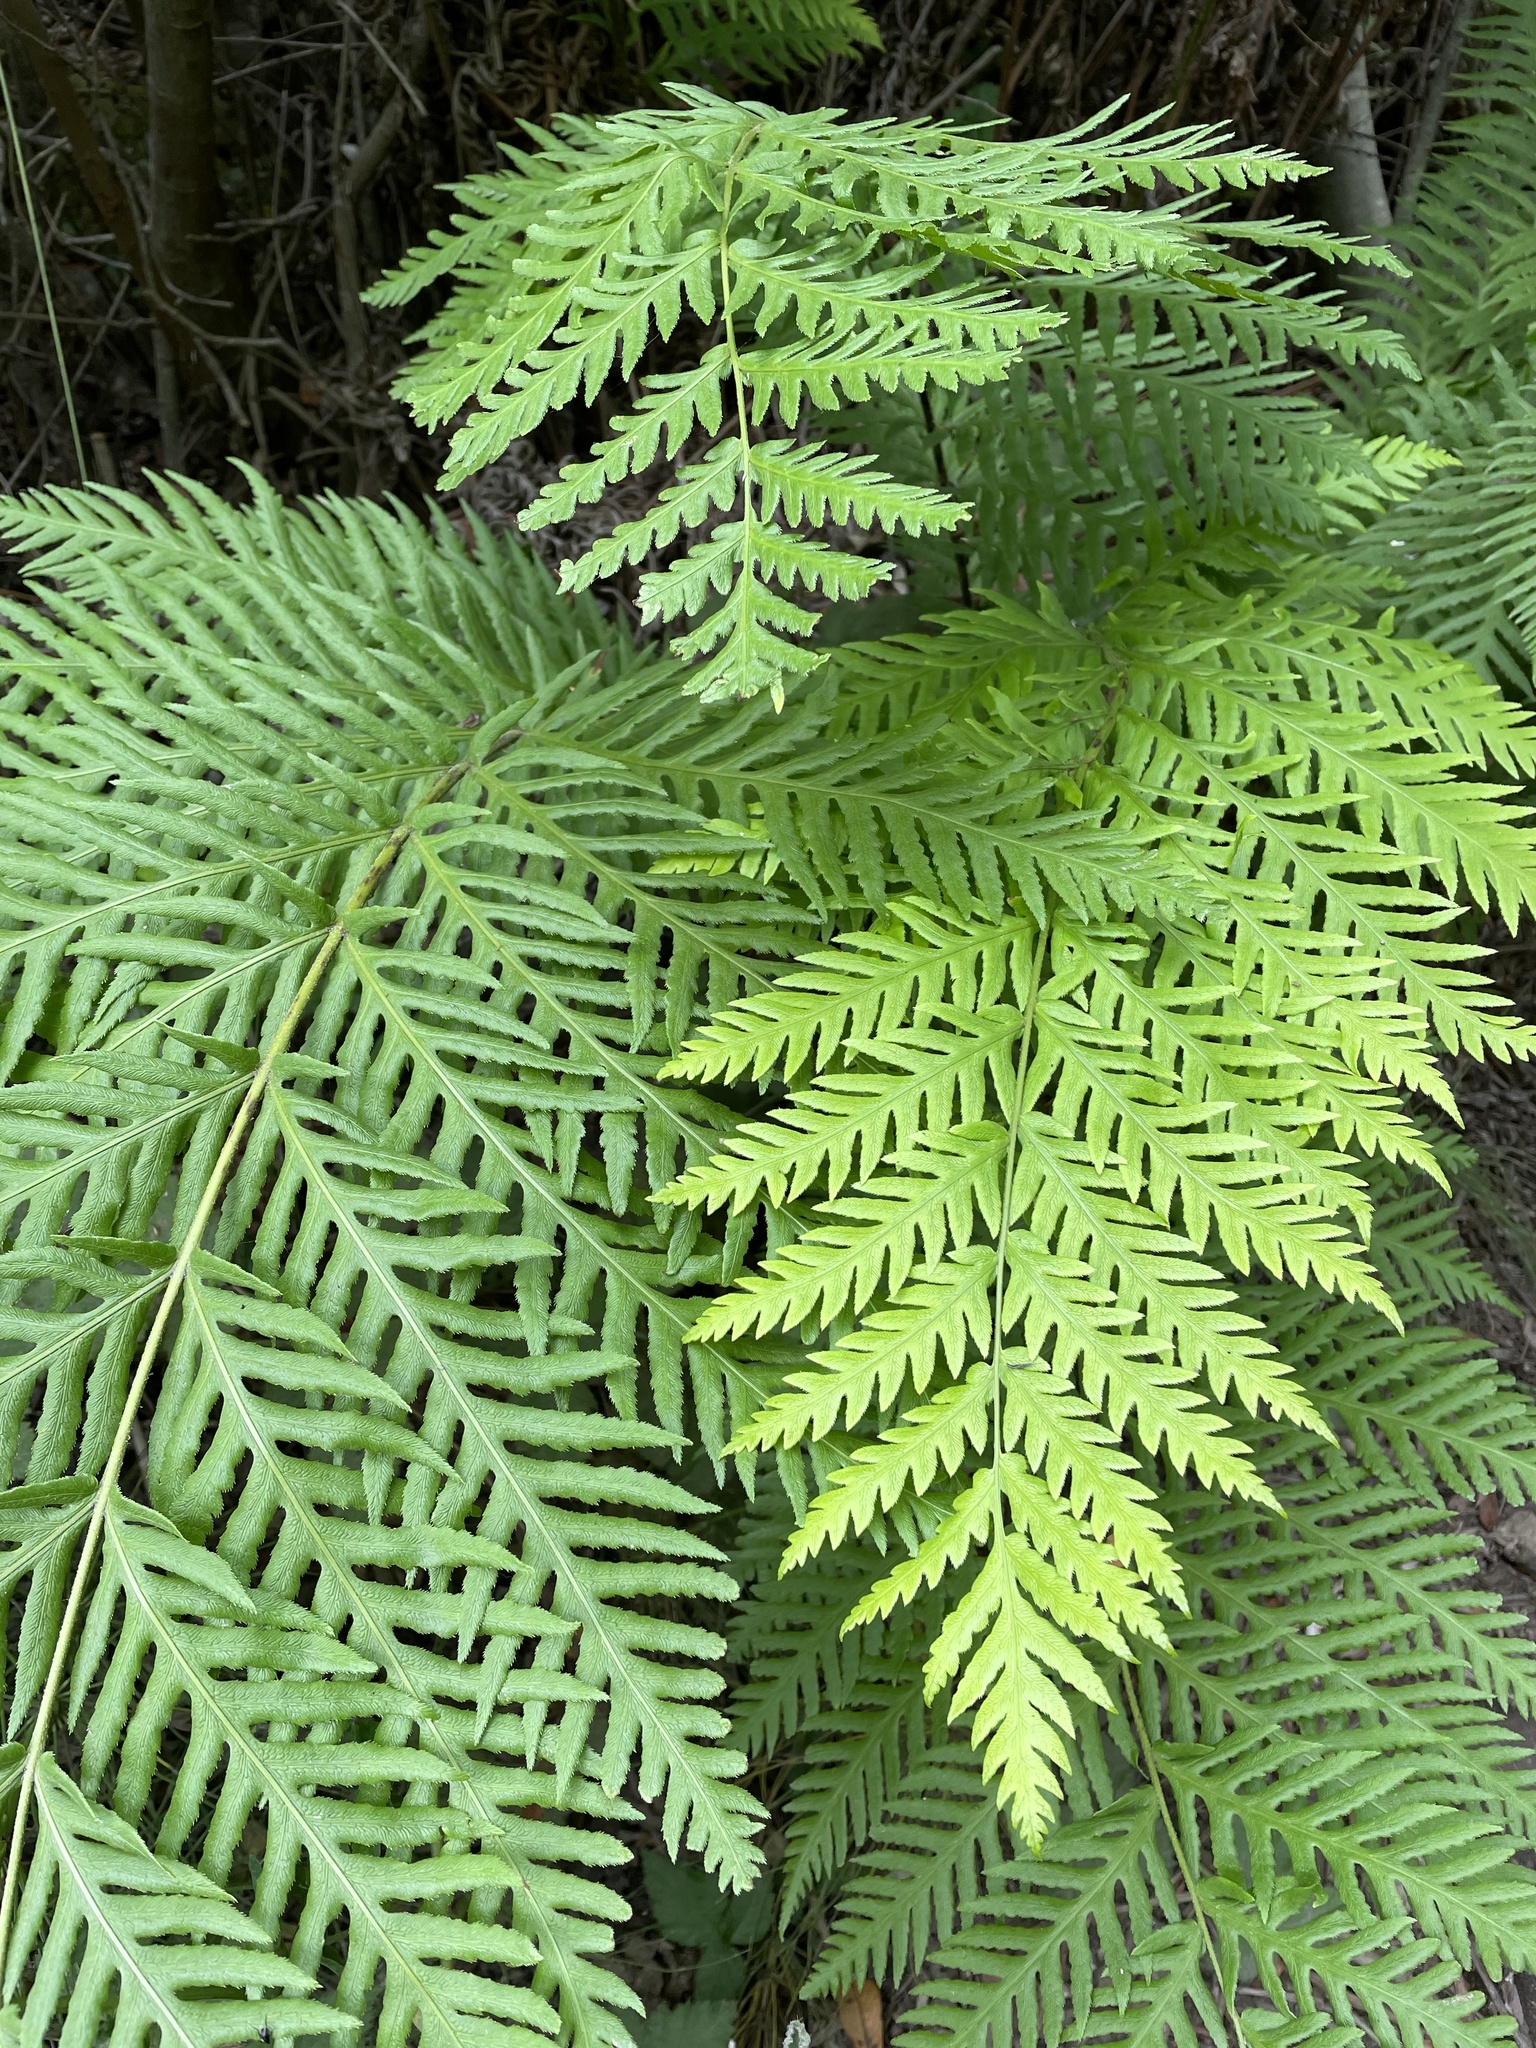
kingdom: Plantae
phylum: Tracheophyta
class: Polypodiopsida
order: Polypodiales
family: Blechnaceae
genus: Woodwardia
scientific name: Woodwardia fimbriata
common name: Giant chain fern
